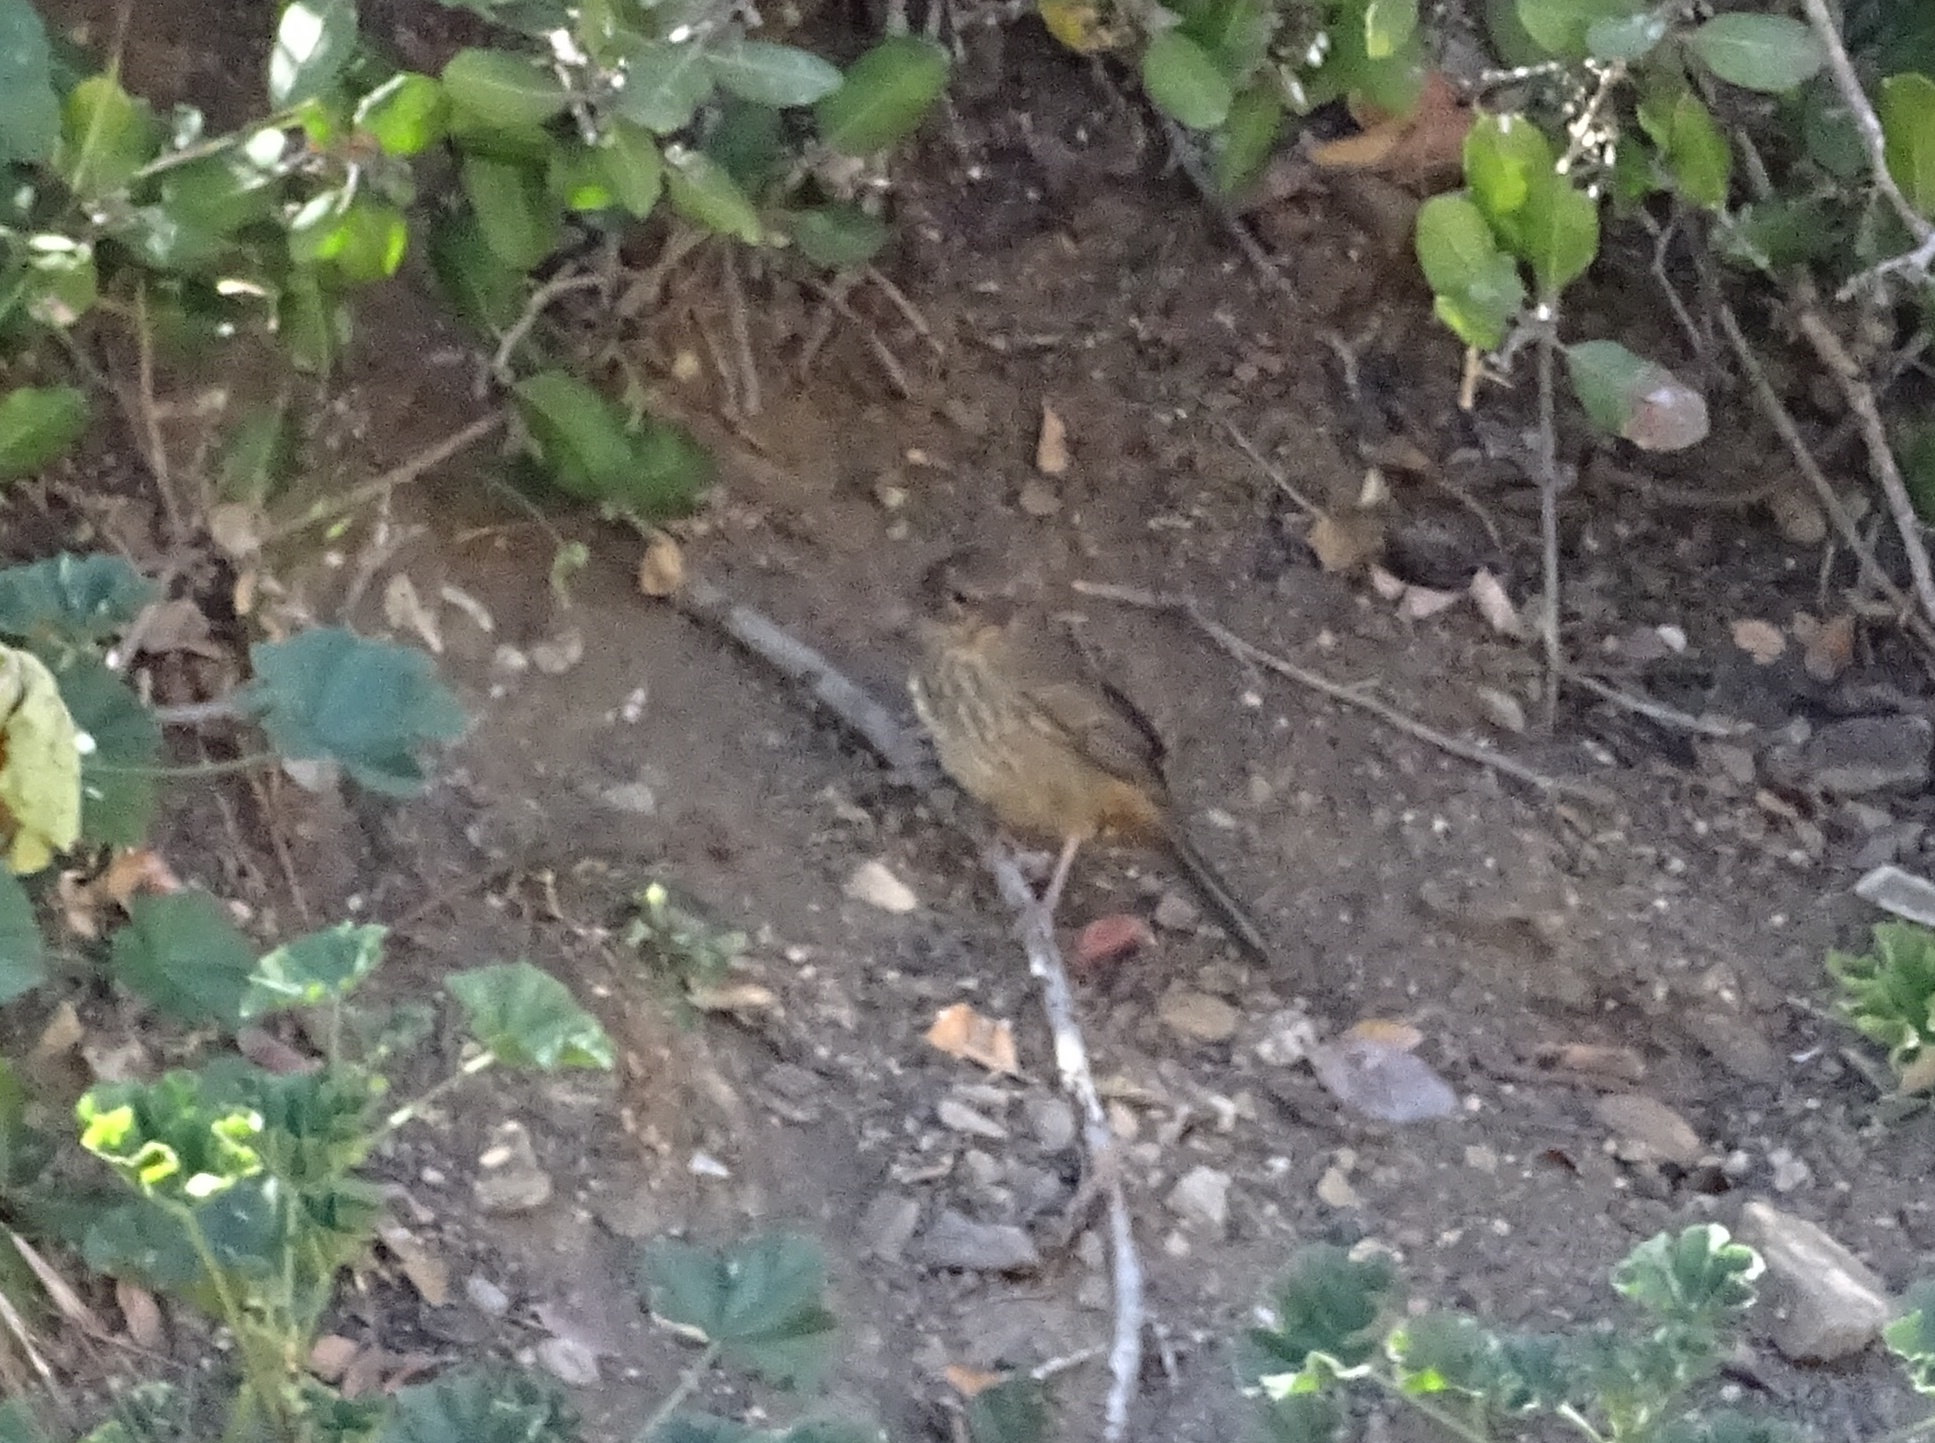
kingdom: Animalia
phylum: Chordata
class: Aves
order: Passeriformes
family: Passerellidae
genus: Melozone
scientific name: Melozone crissalis
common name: California towhee
